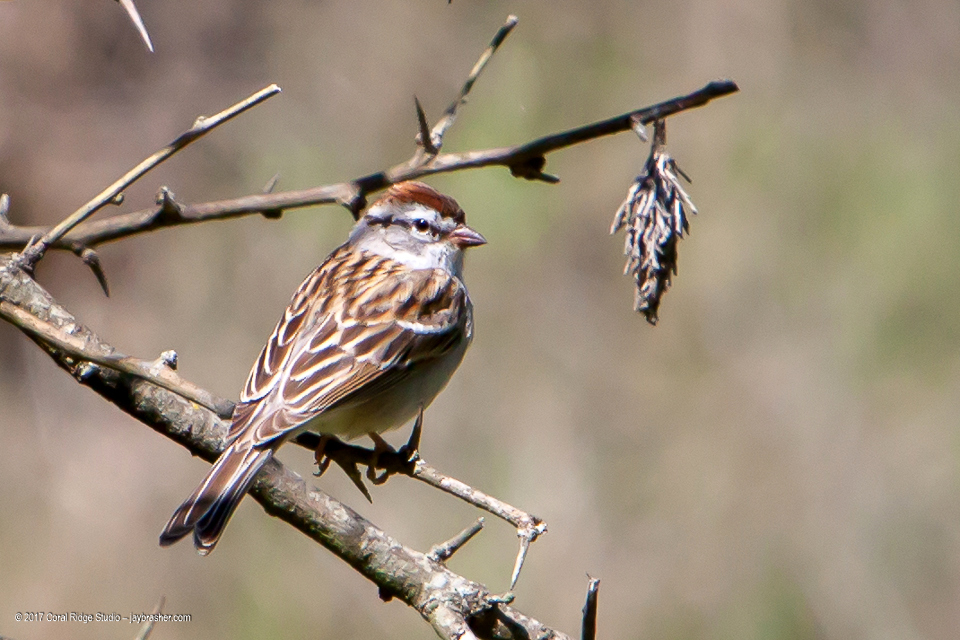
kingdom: Animalia
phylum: Chordata
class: Aves
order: Passeriformes
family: Passerellidae
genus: Spizella
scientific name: Spizella passerina
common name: Chipping sparrow
